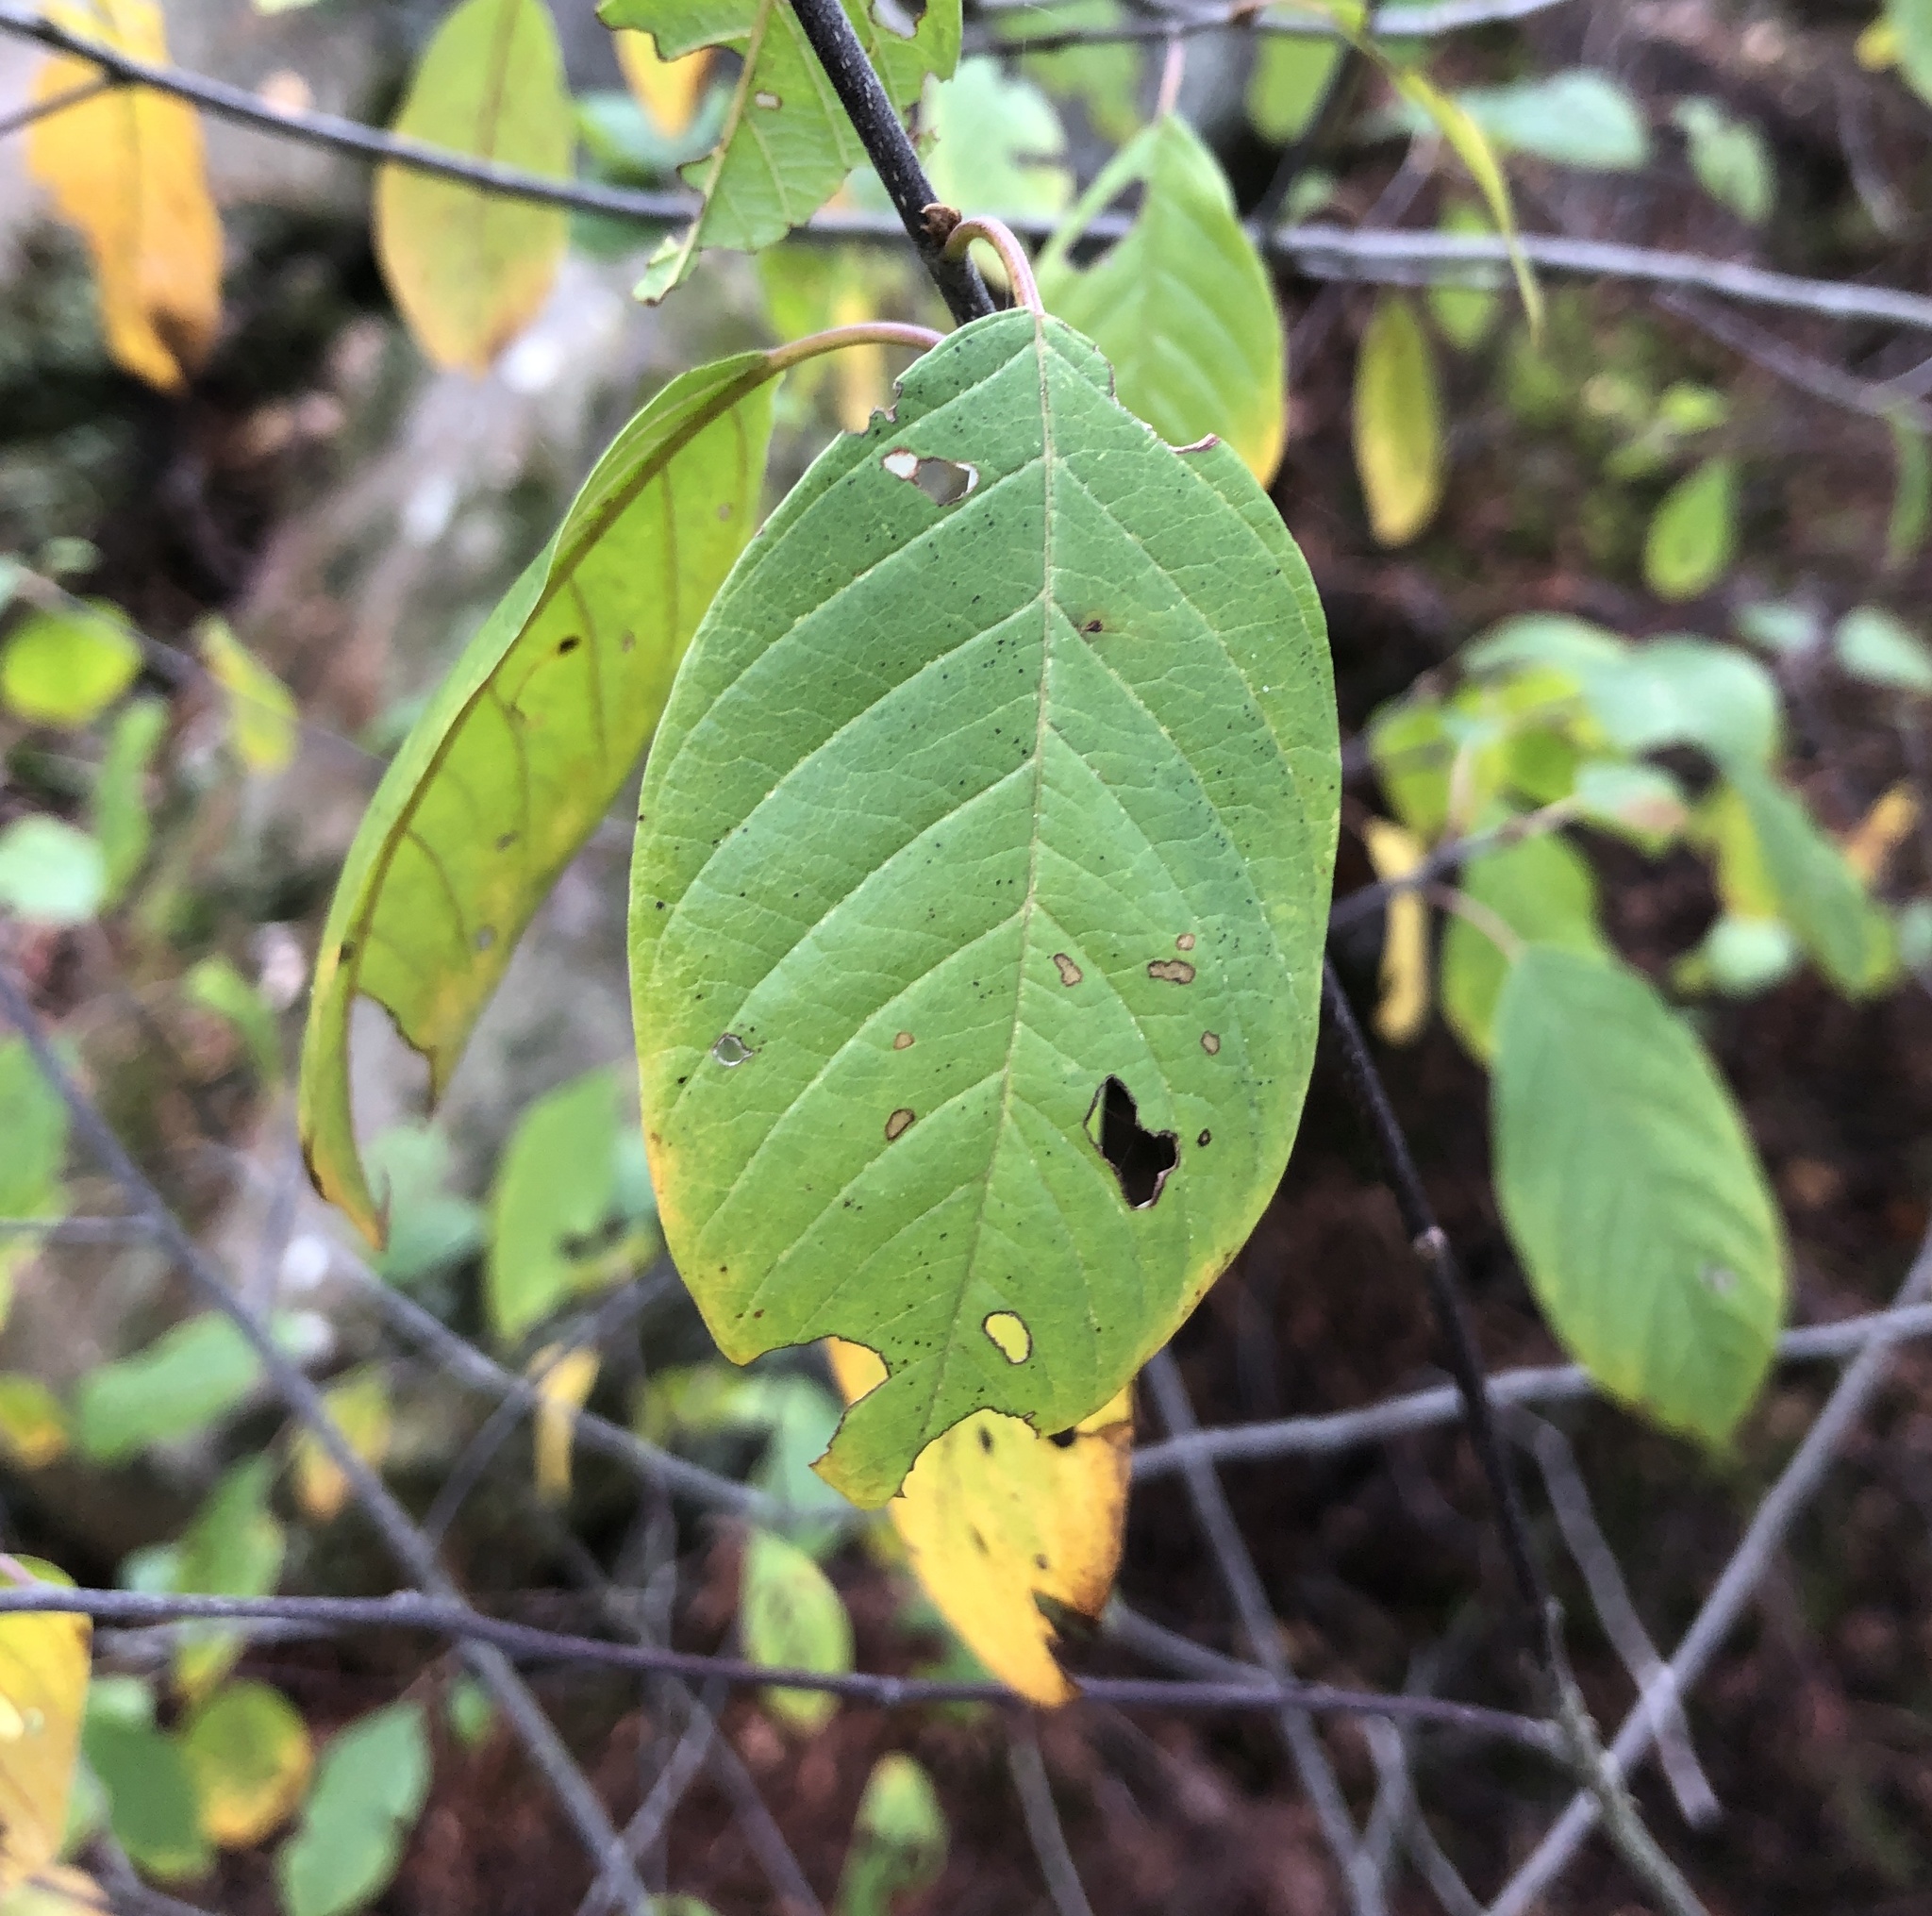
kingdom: Plantae
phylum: Tracheophyta
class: Magnoliopsida
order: Rosales
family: Rhamnaceae
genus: Frangula
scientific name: Frangula alnus
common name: Alder buckthorn
